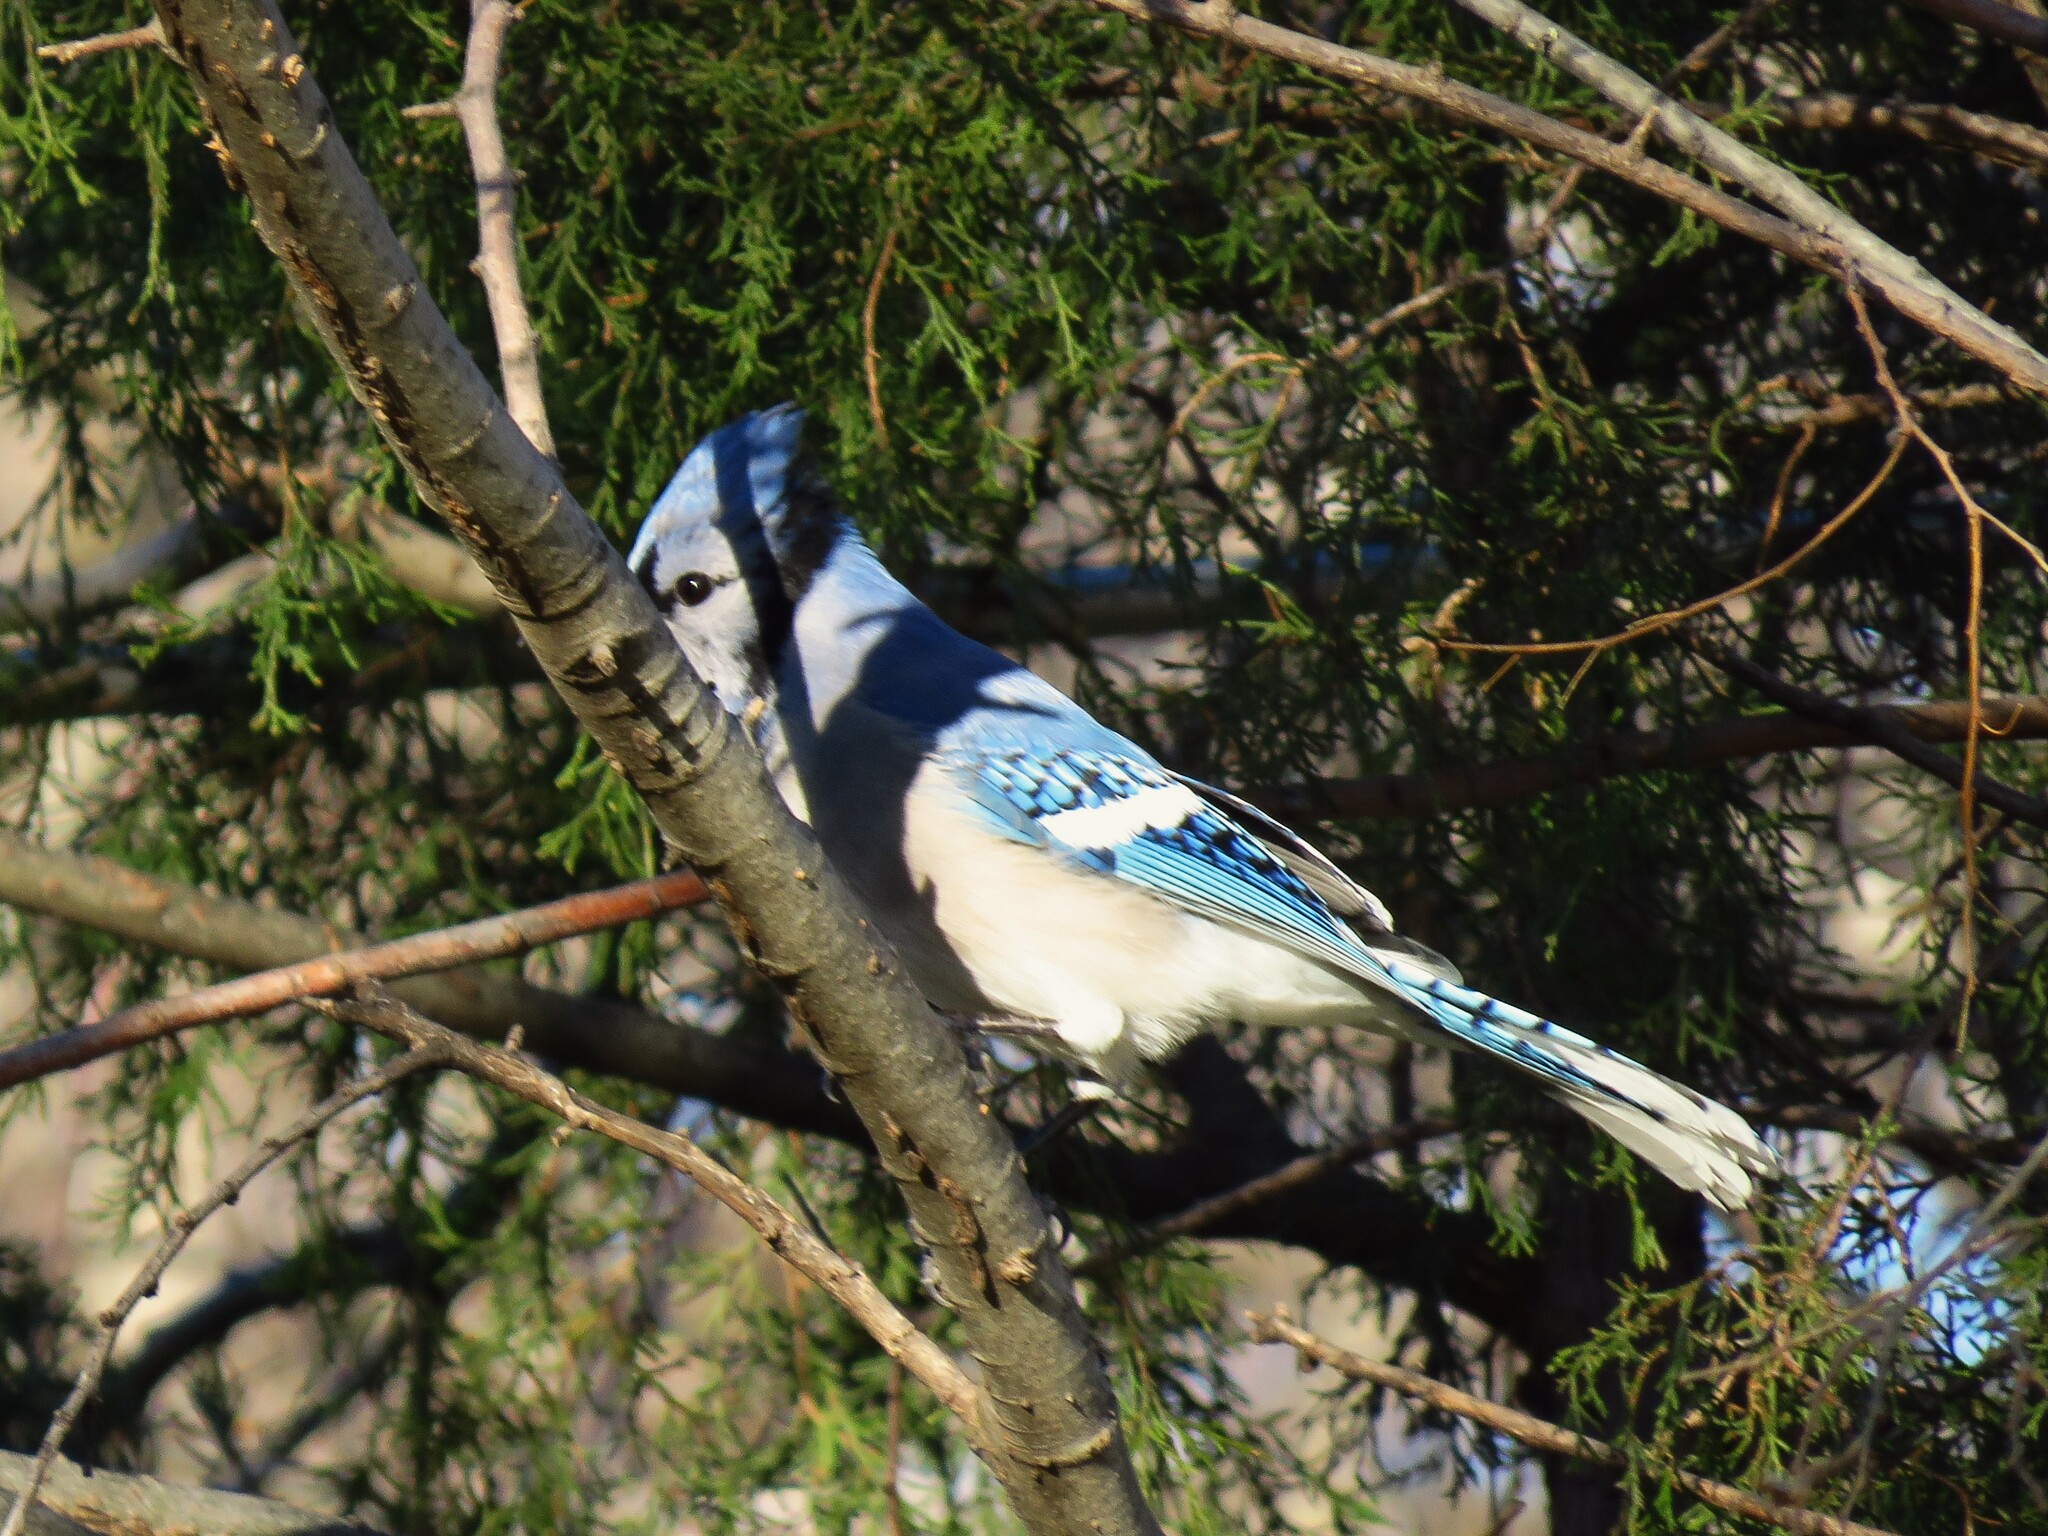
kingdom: Animalia
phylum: Chordata
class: Aves
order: Passeriformes
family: Corvidae
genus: Cyanocitta
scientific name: Cyanocitta cristata
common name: Blue jay
